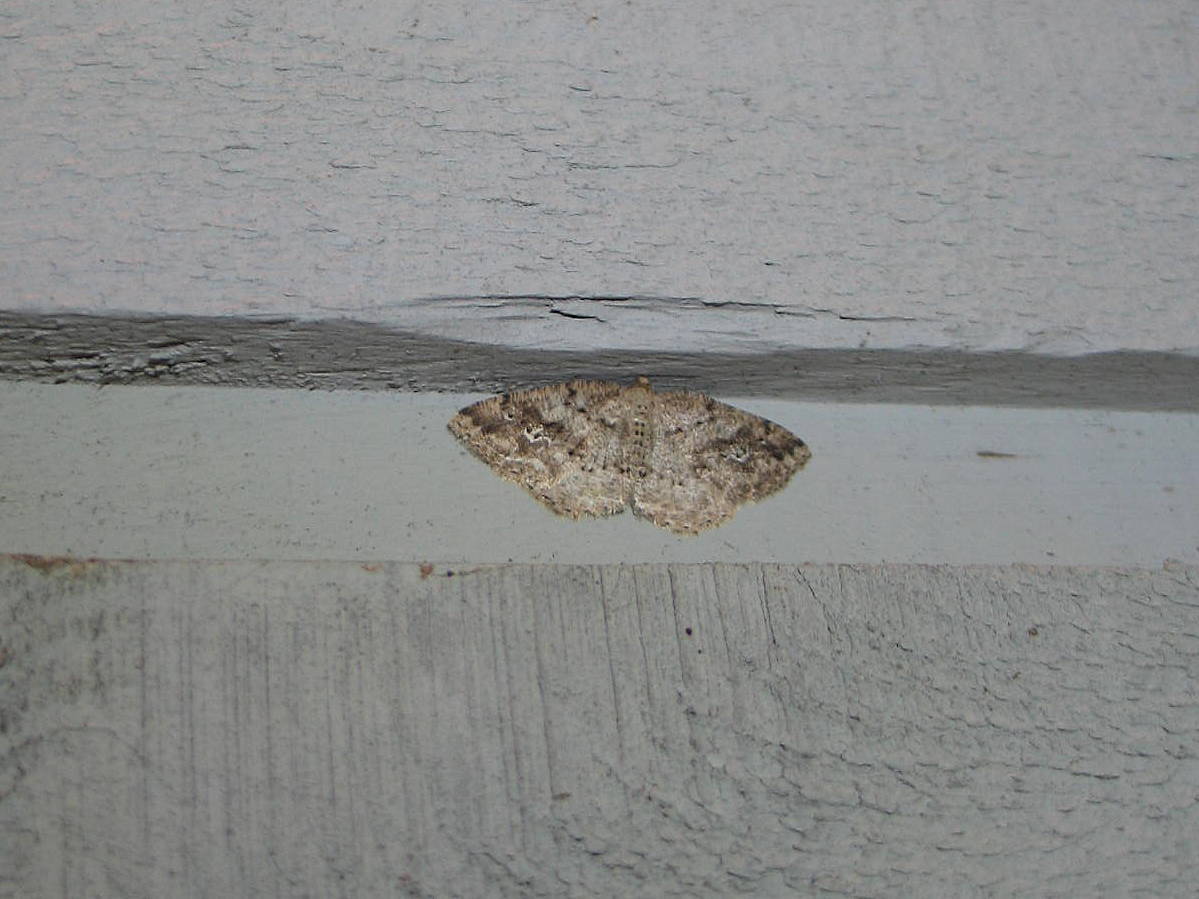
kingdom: Animalia
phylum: Arthropoda
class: Insecta
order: Lepidoptera
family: Geometridae
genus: Homochlodes
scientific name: Homochlodes fritillaria
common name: Pale homochlodes
